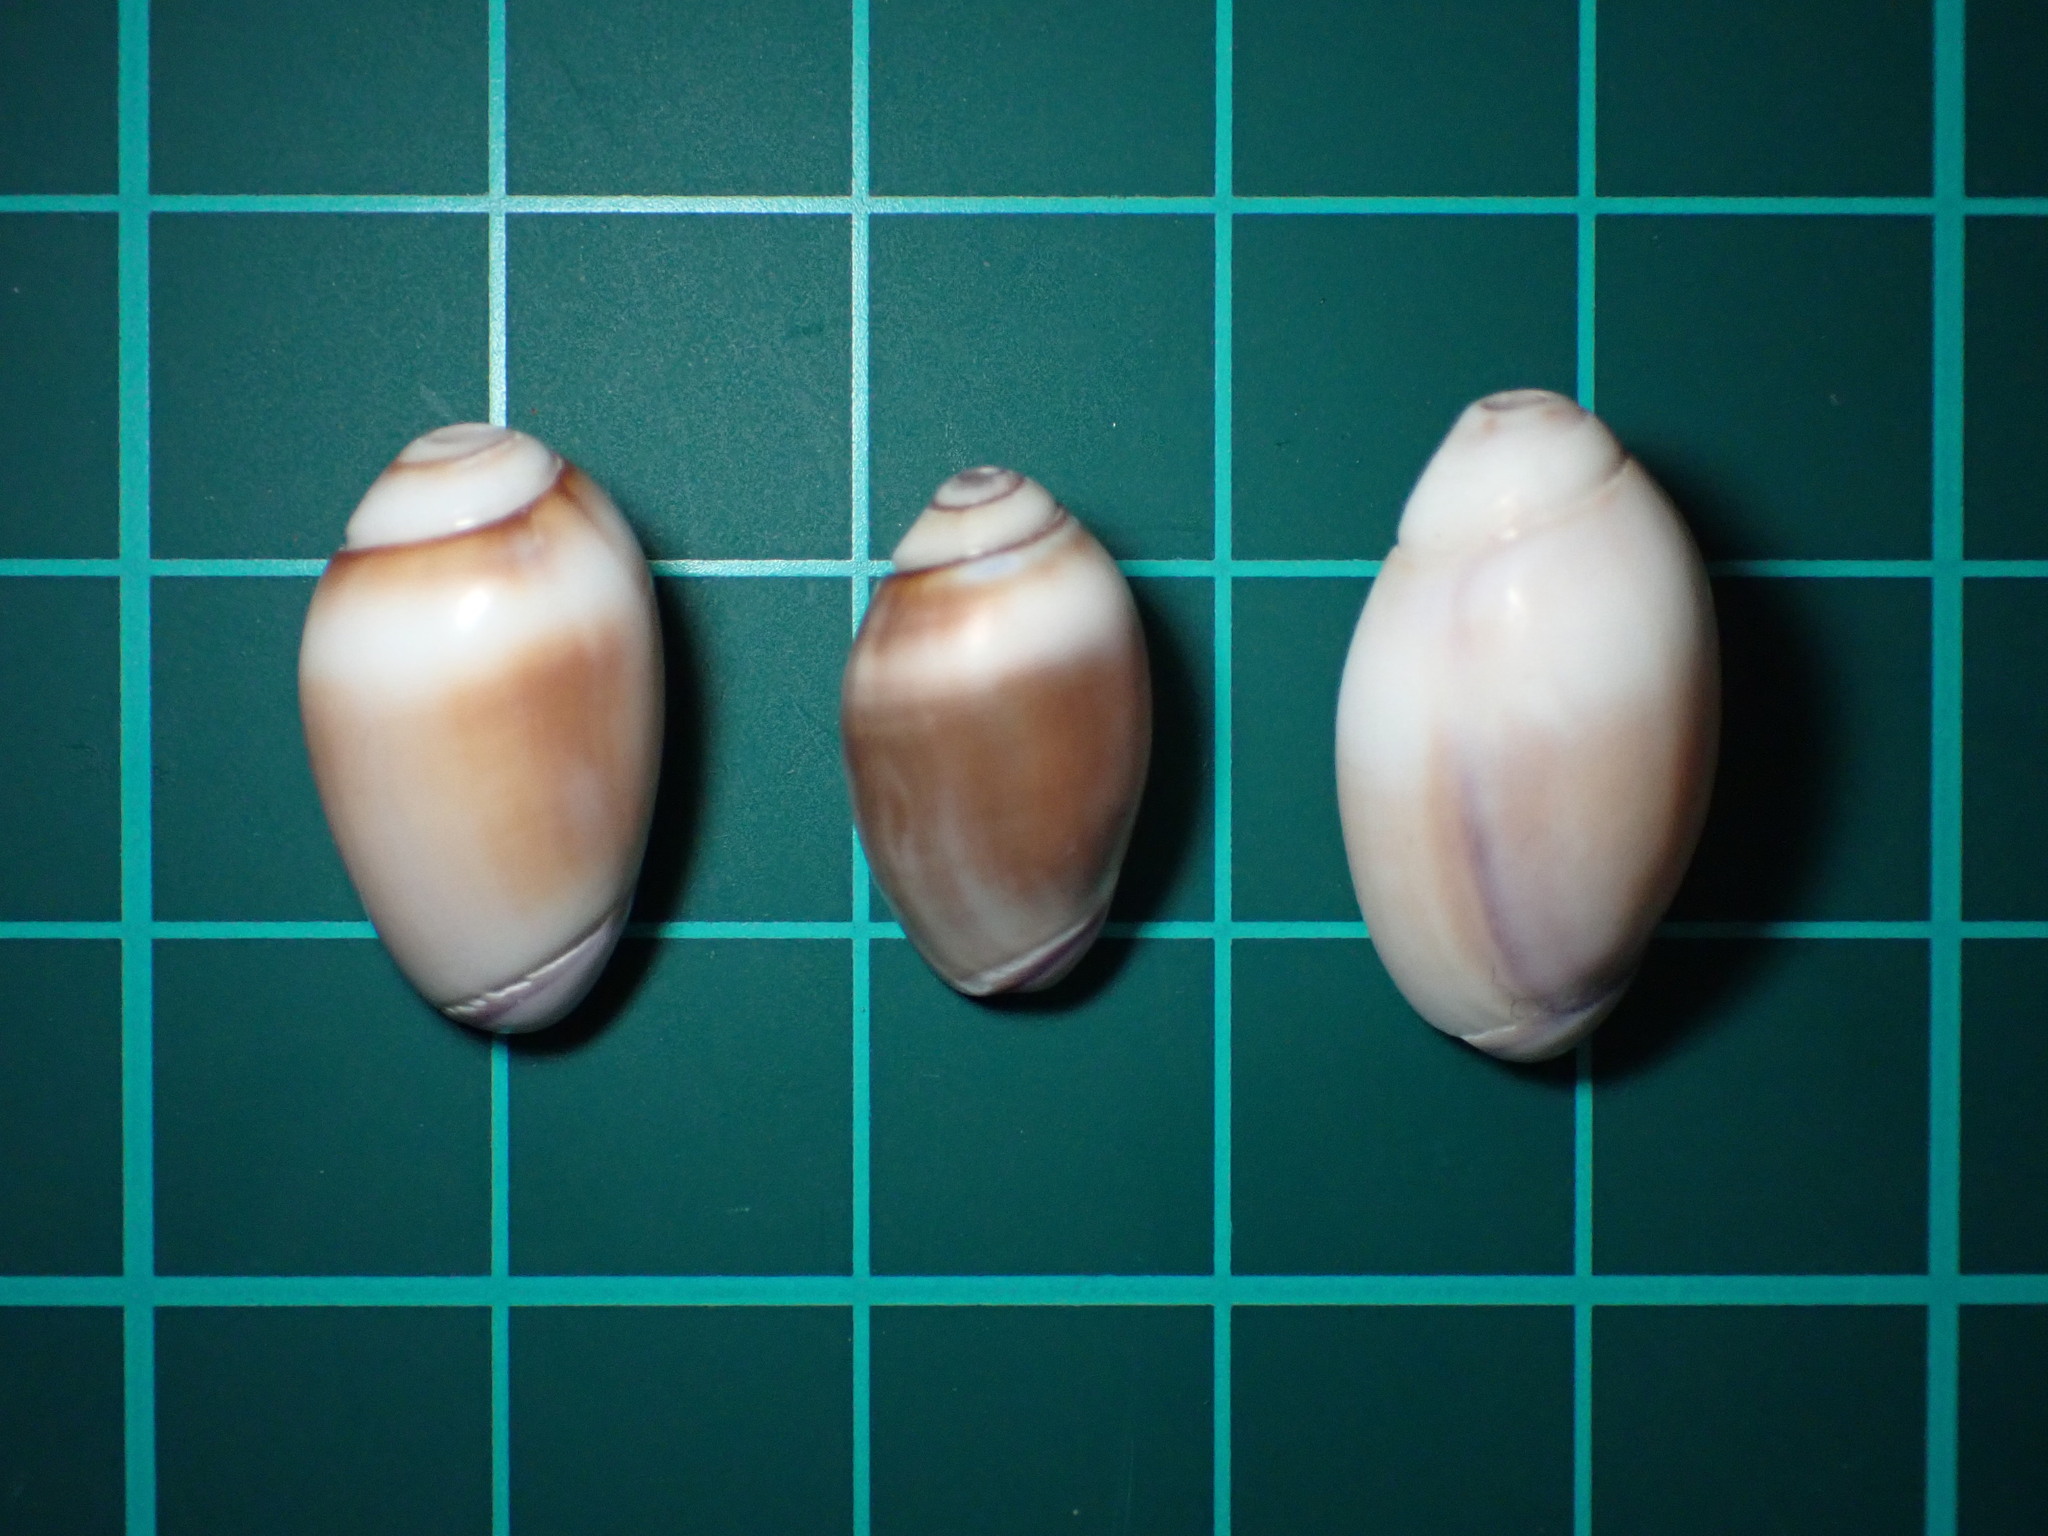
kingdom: Animalia
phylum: Mollusca
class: Gastropoda
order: Neogastropoda
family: Olividae
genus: Callianax
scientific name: Callianax biplicata
